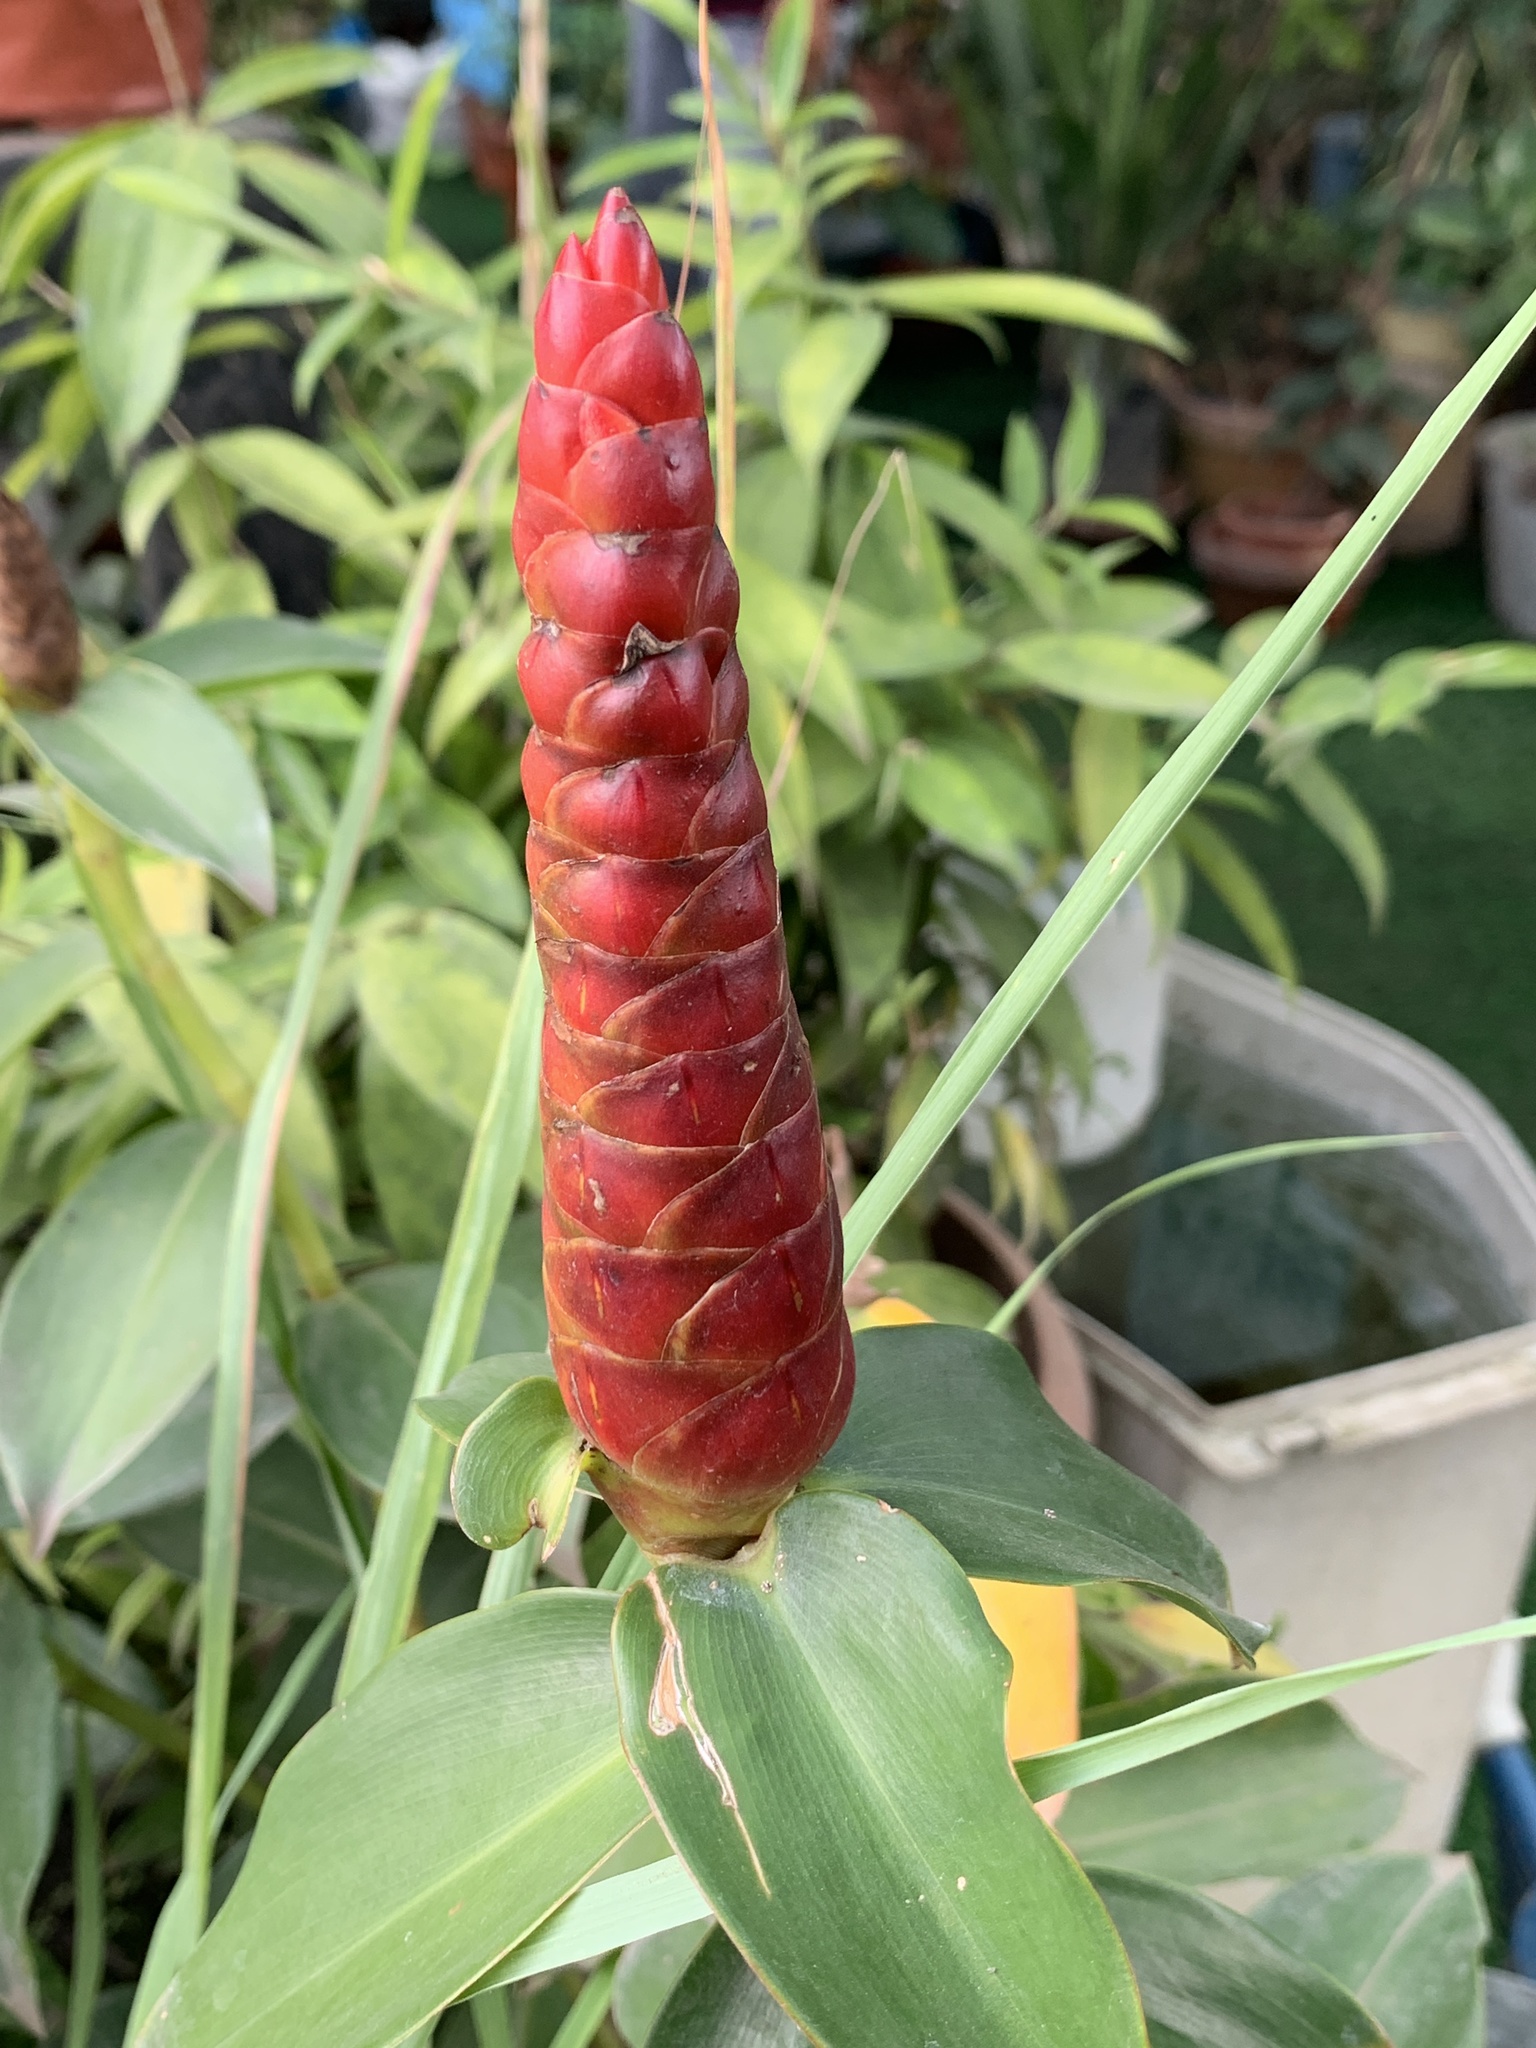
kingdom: Plantae
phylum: Tracheophyta
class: Liliopsida
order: Zingiberales
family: Costaceae
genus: Costus
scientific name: Costus woodsonii
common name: Scarlet spiral-ginger
